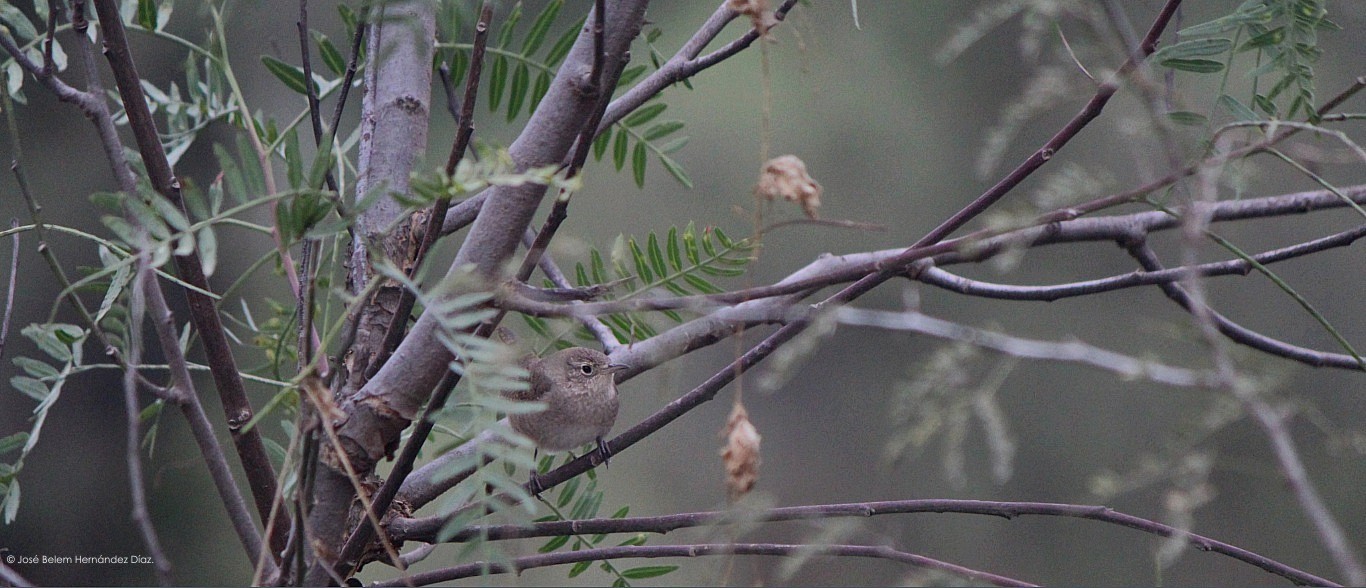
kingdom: Animalia
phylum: Chordata
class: Aves
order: Passeriformes
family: Troglodytidae
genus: Troglodytes
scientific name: Troglodytes aedon
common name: House wren
